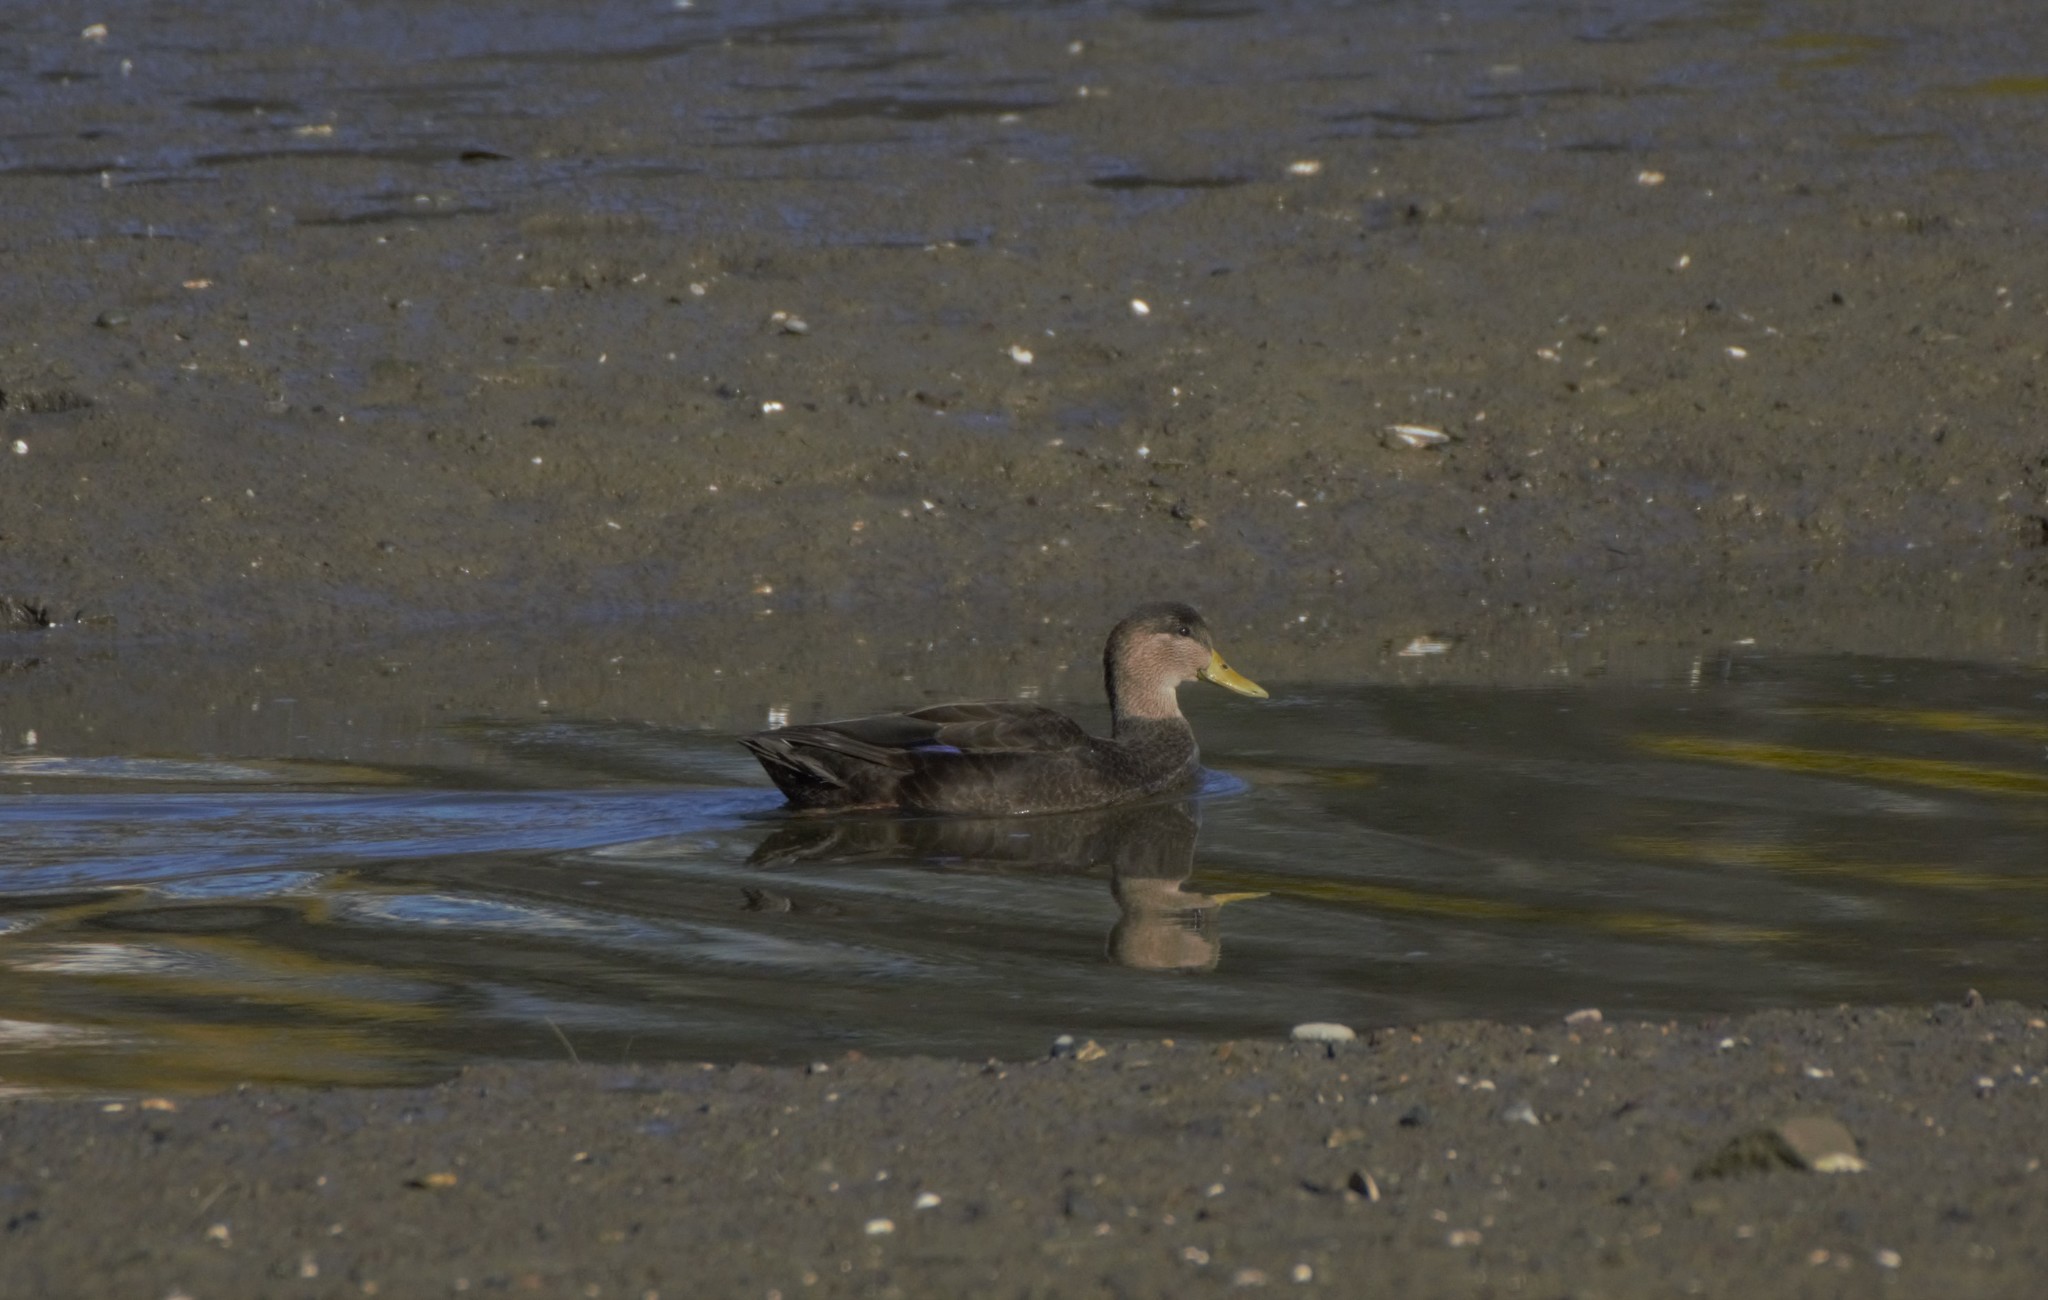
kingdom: Animalia
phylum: Chordata
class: Aves
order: Anseriformes
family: Anatidae
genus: Anas
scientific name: Anas rubripes
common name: American black duck
